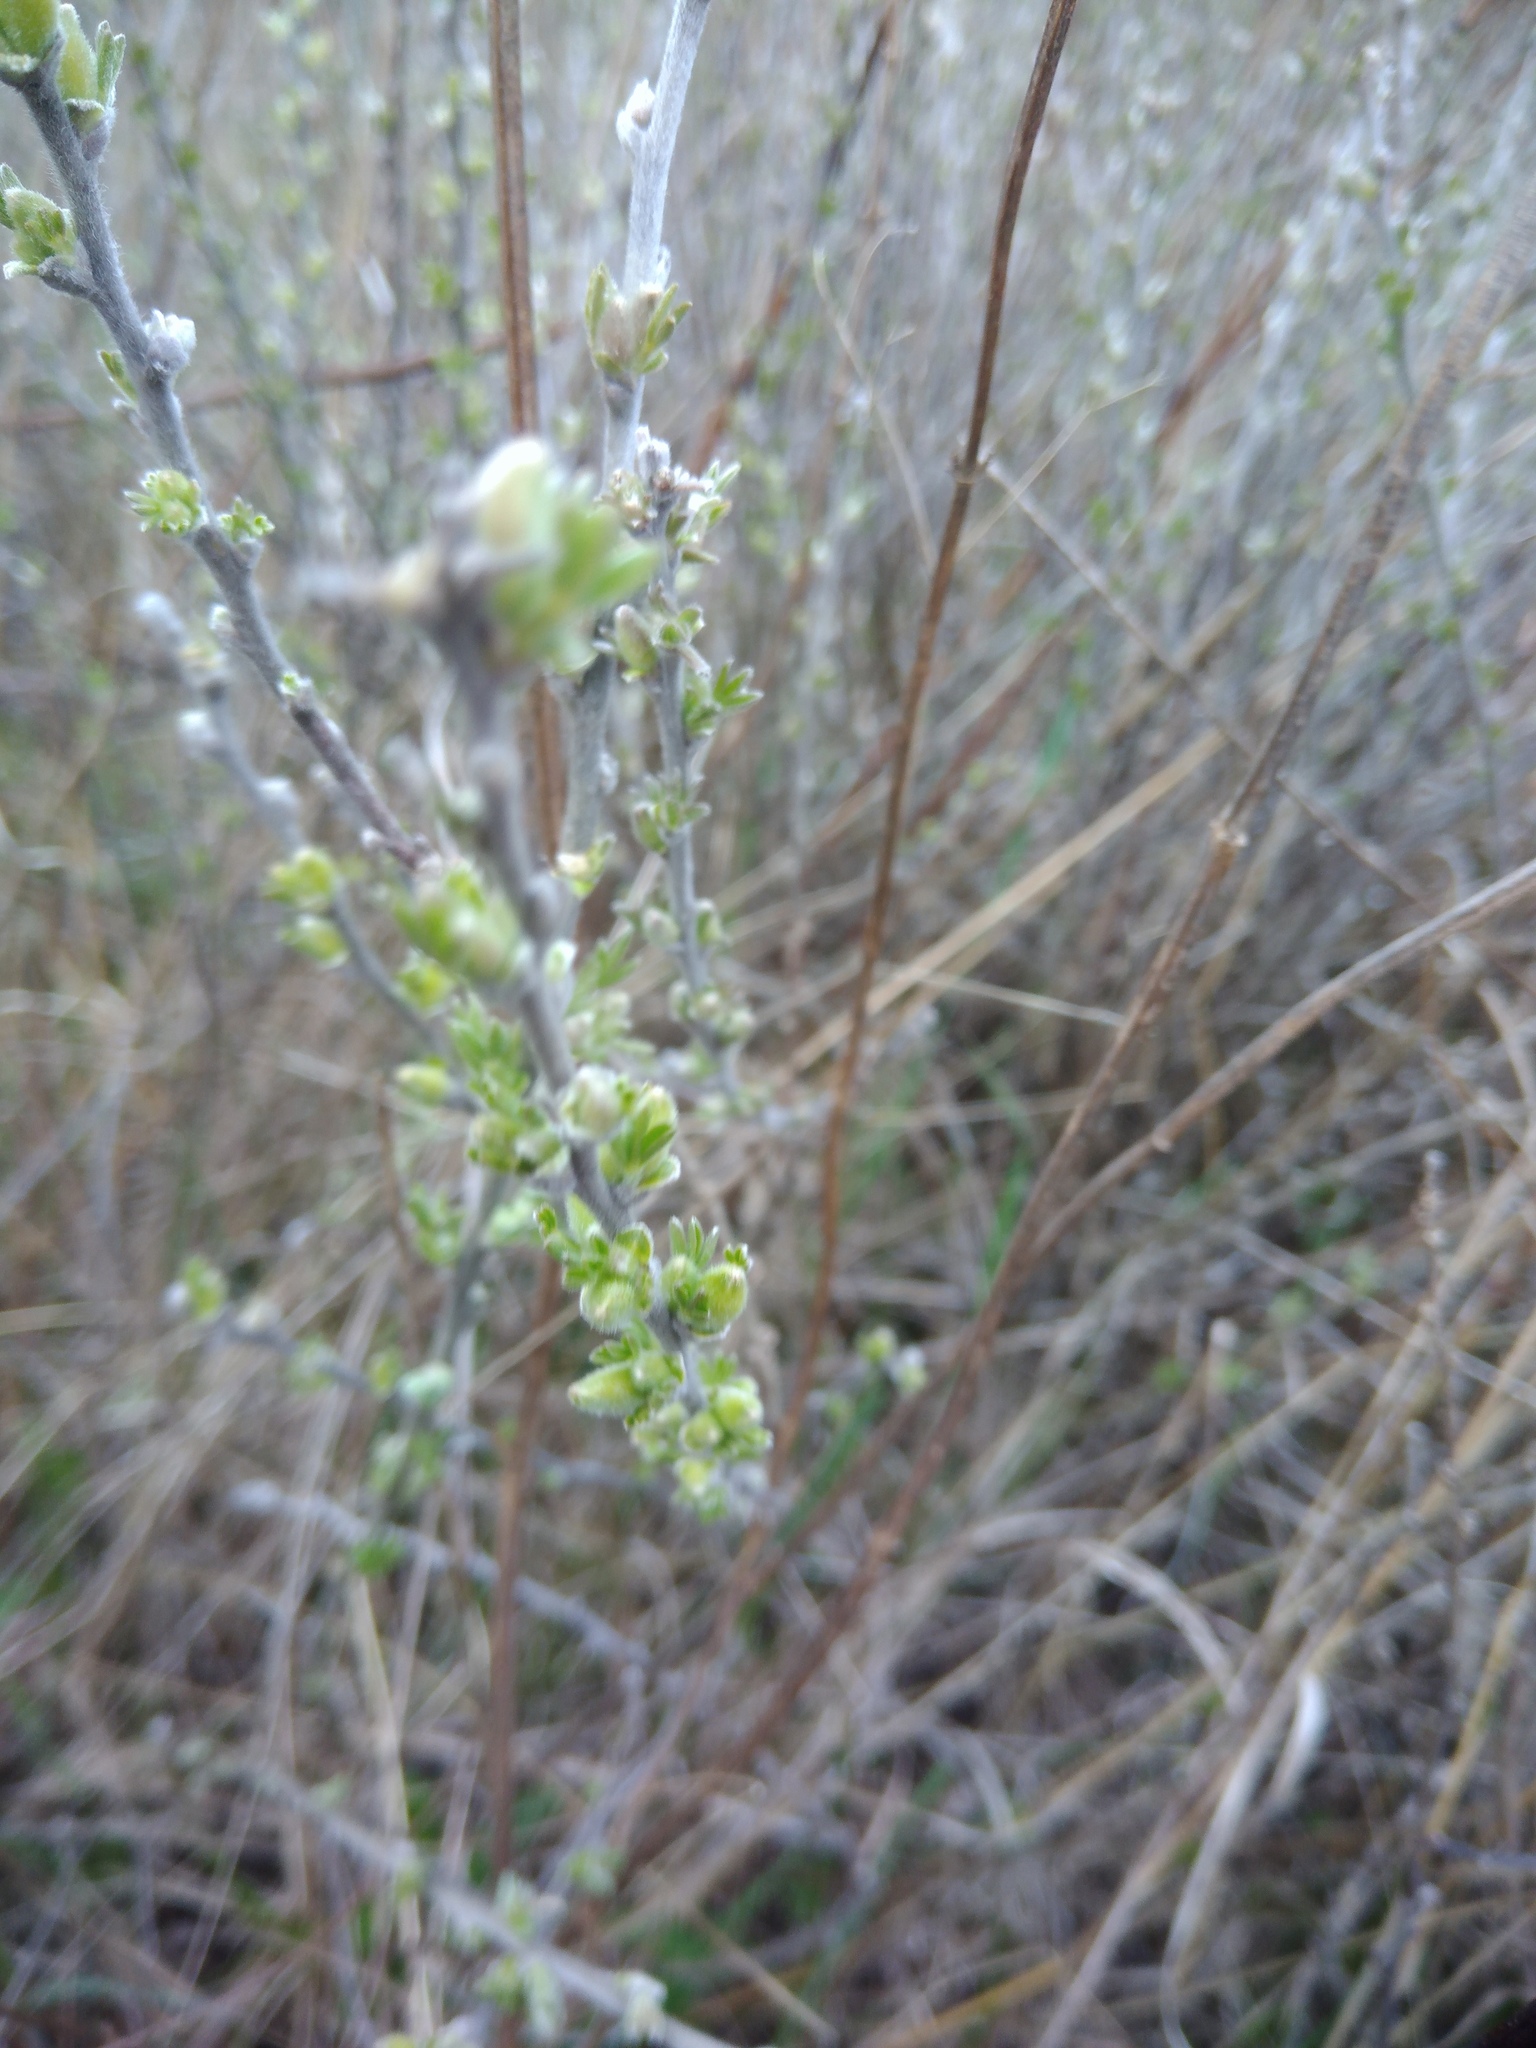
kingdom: Plantae
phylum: Tracheophyta
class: Magnoliopsida
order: Fabales
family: Fabaceae
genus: Chamaecytisus
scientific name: Chamaecytisus ruthenicus
